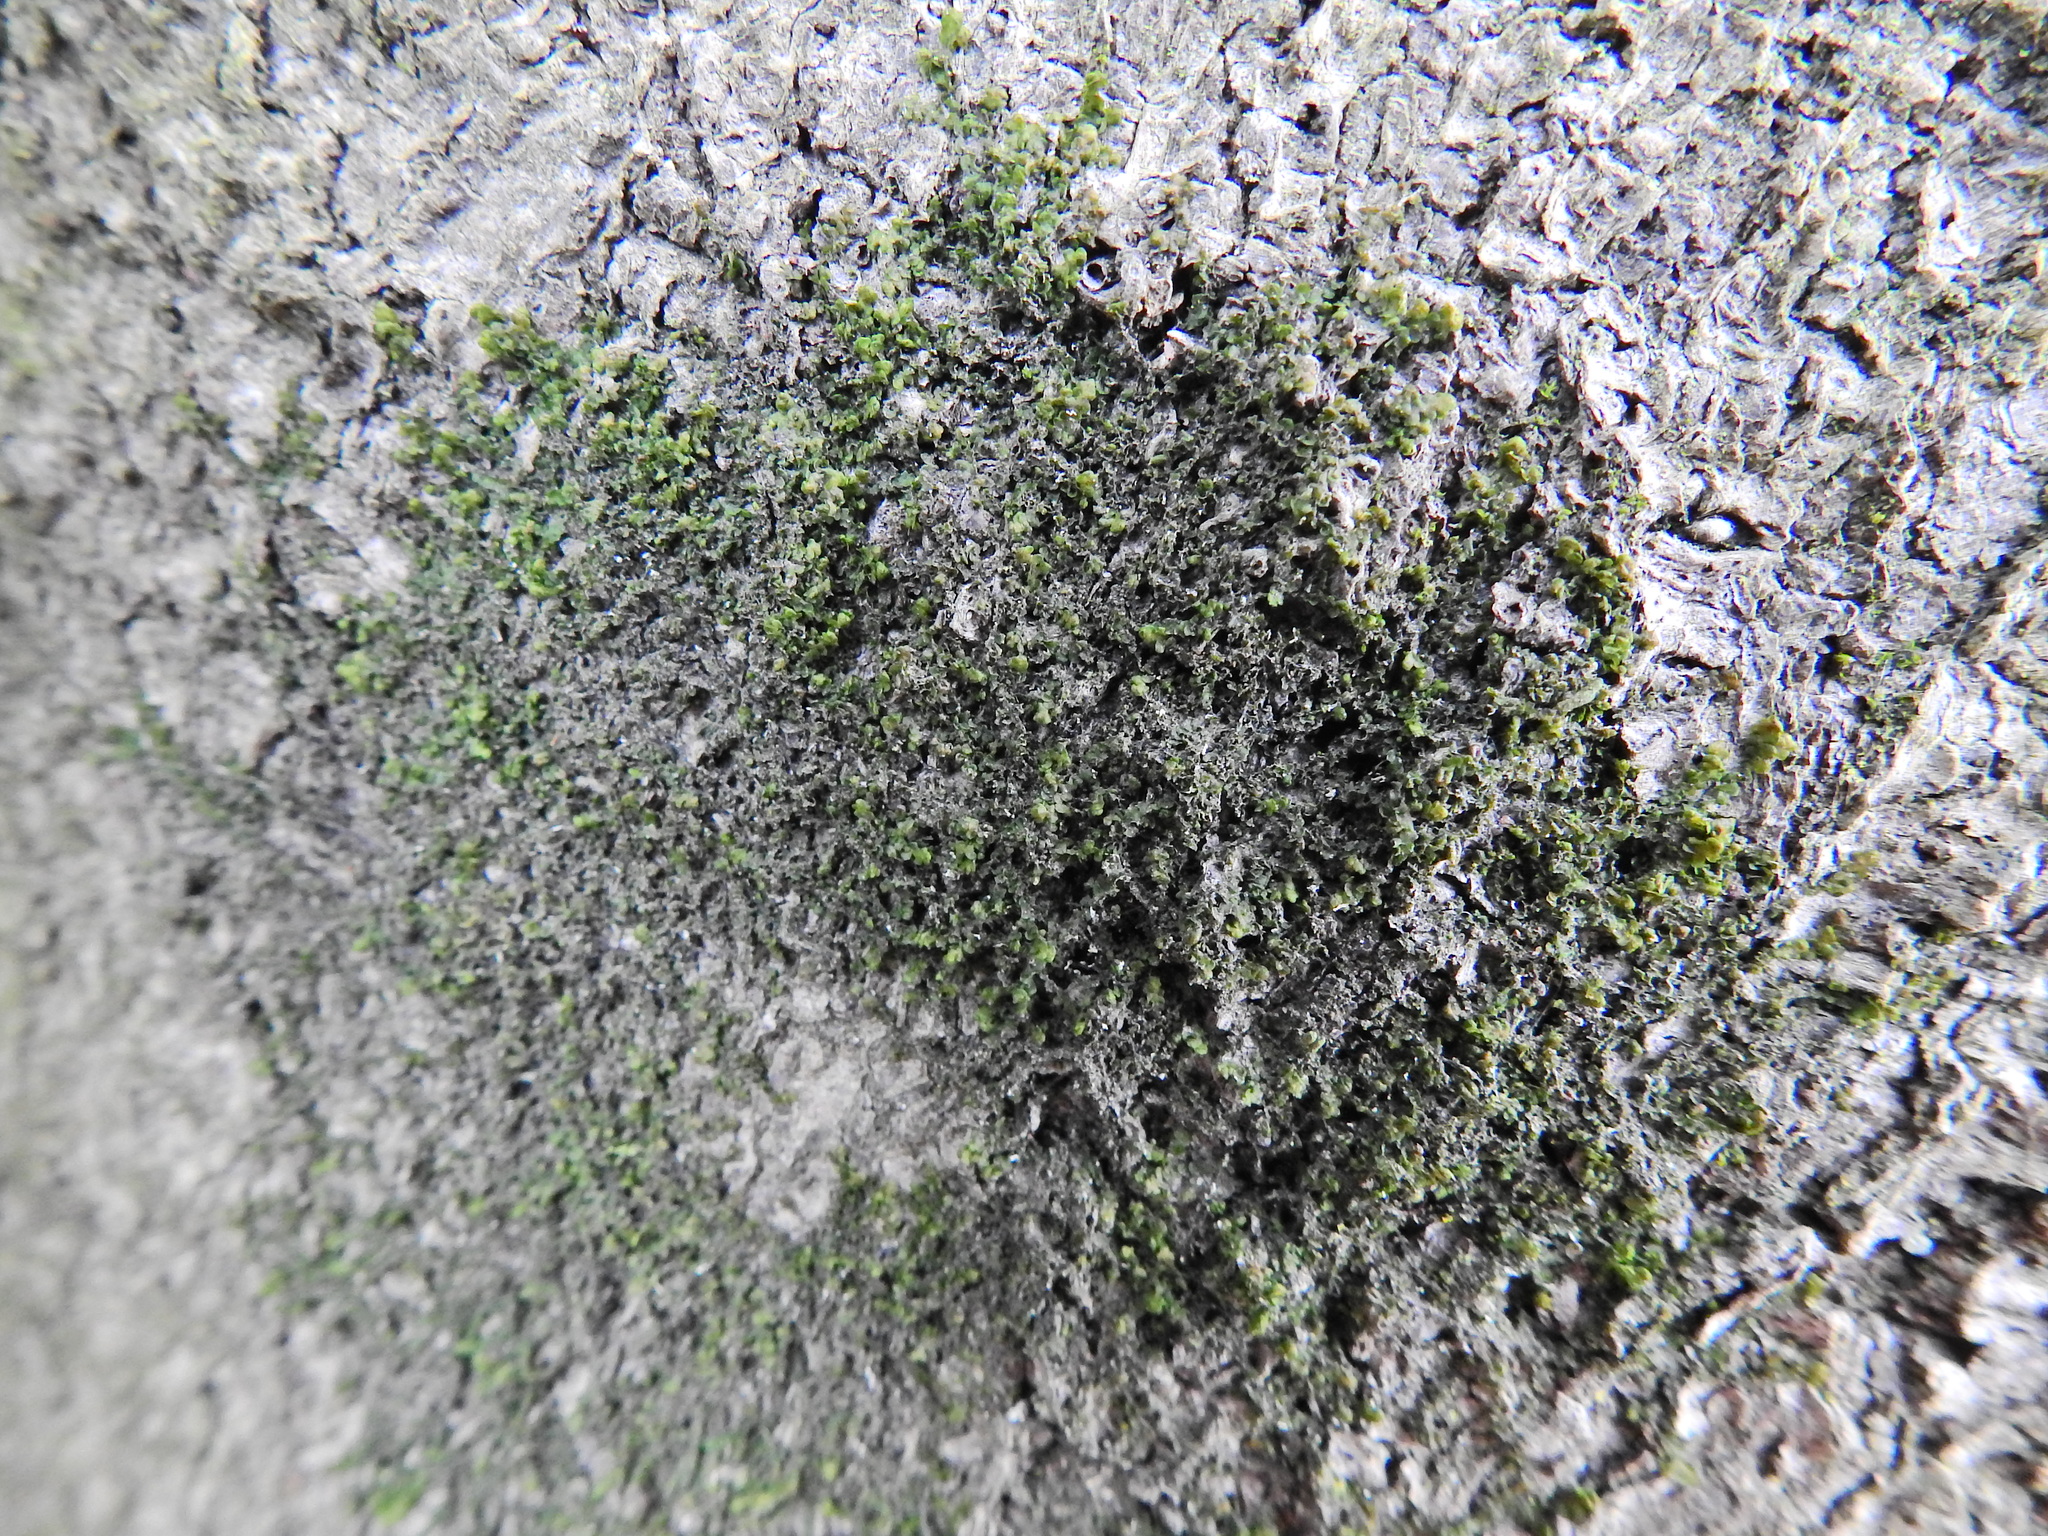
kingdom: Plantae
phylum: Marchantiophyta
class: Jungermanniopsida
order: Porellales
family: Frullaniaceae
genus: Frullania
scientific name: Frullania dilatata
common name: Dilated scalewort
